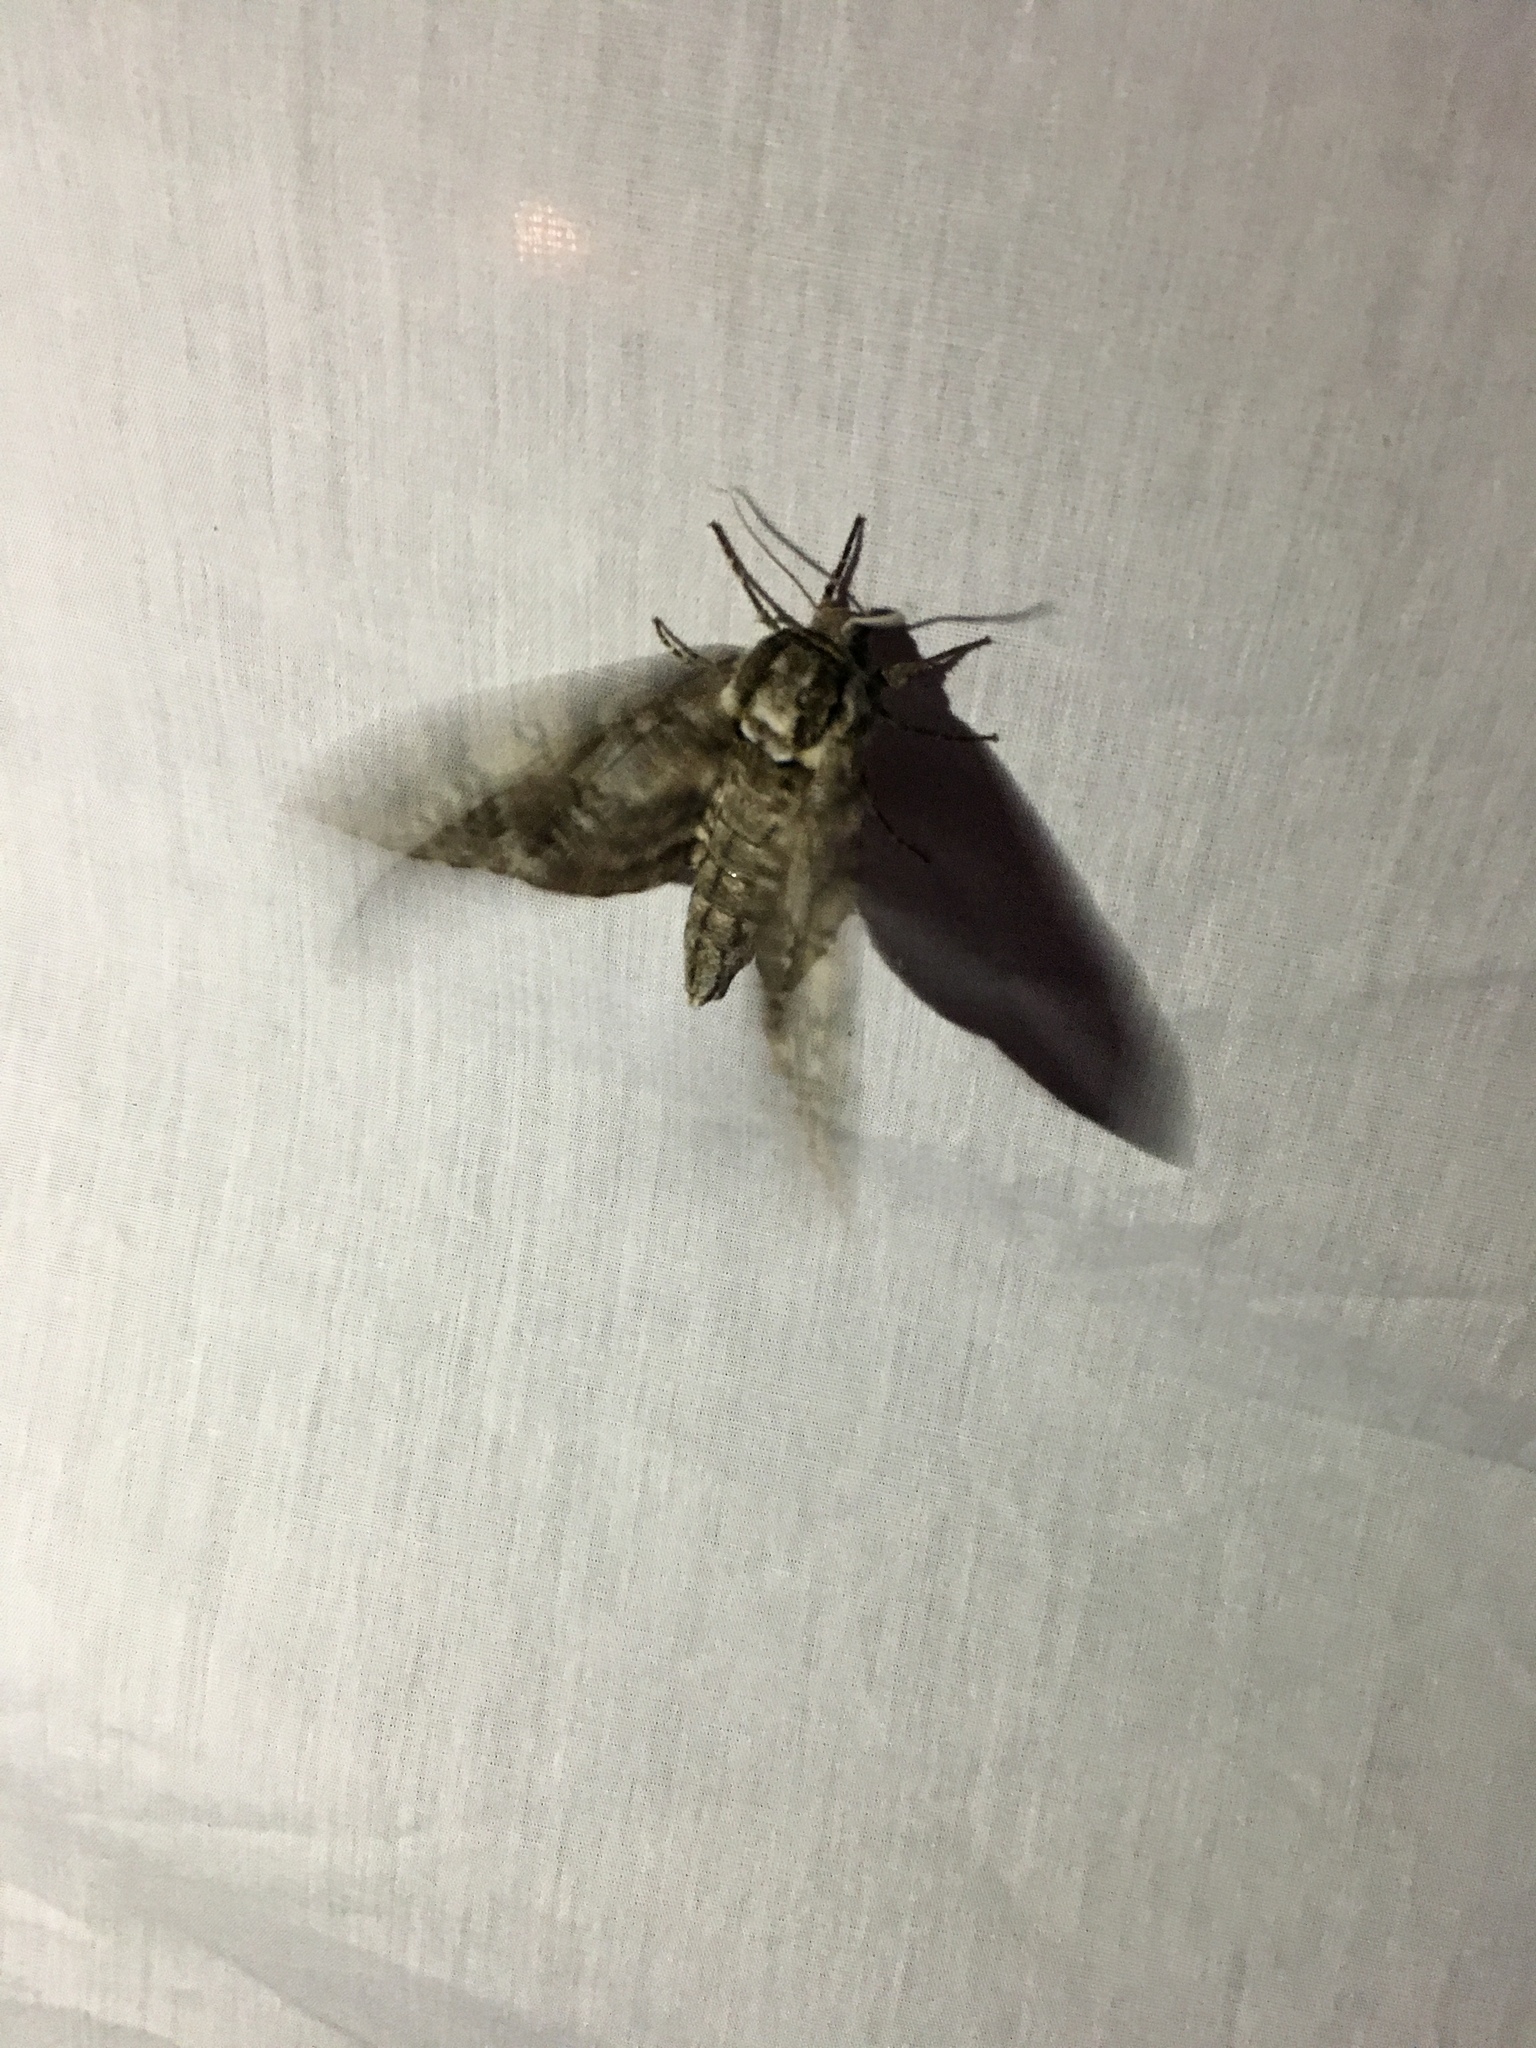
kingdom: Animalia
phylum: Arthropoda
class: Insecta
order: Lepidoptera
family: Sphingidae
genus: Ceratomia
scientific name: Ceratomia undulosa
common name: Waved sphinx
